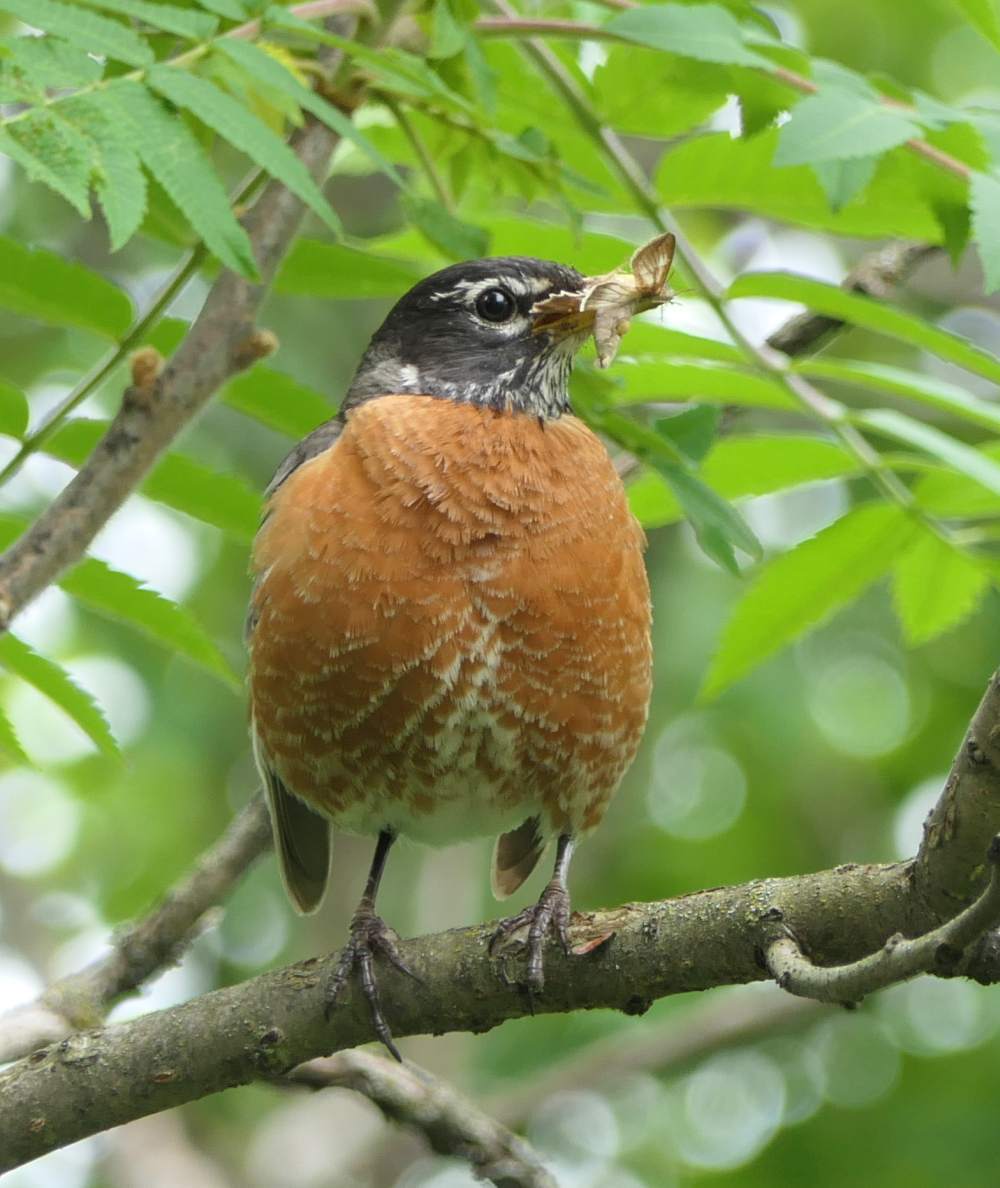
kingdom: Animalia
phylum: Chordata
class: Aves
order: Passeriformes
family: Turdidae
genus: Turdus
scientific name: Turdus migratorius
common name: American robin
